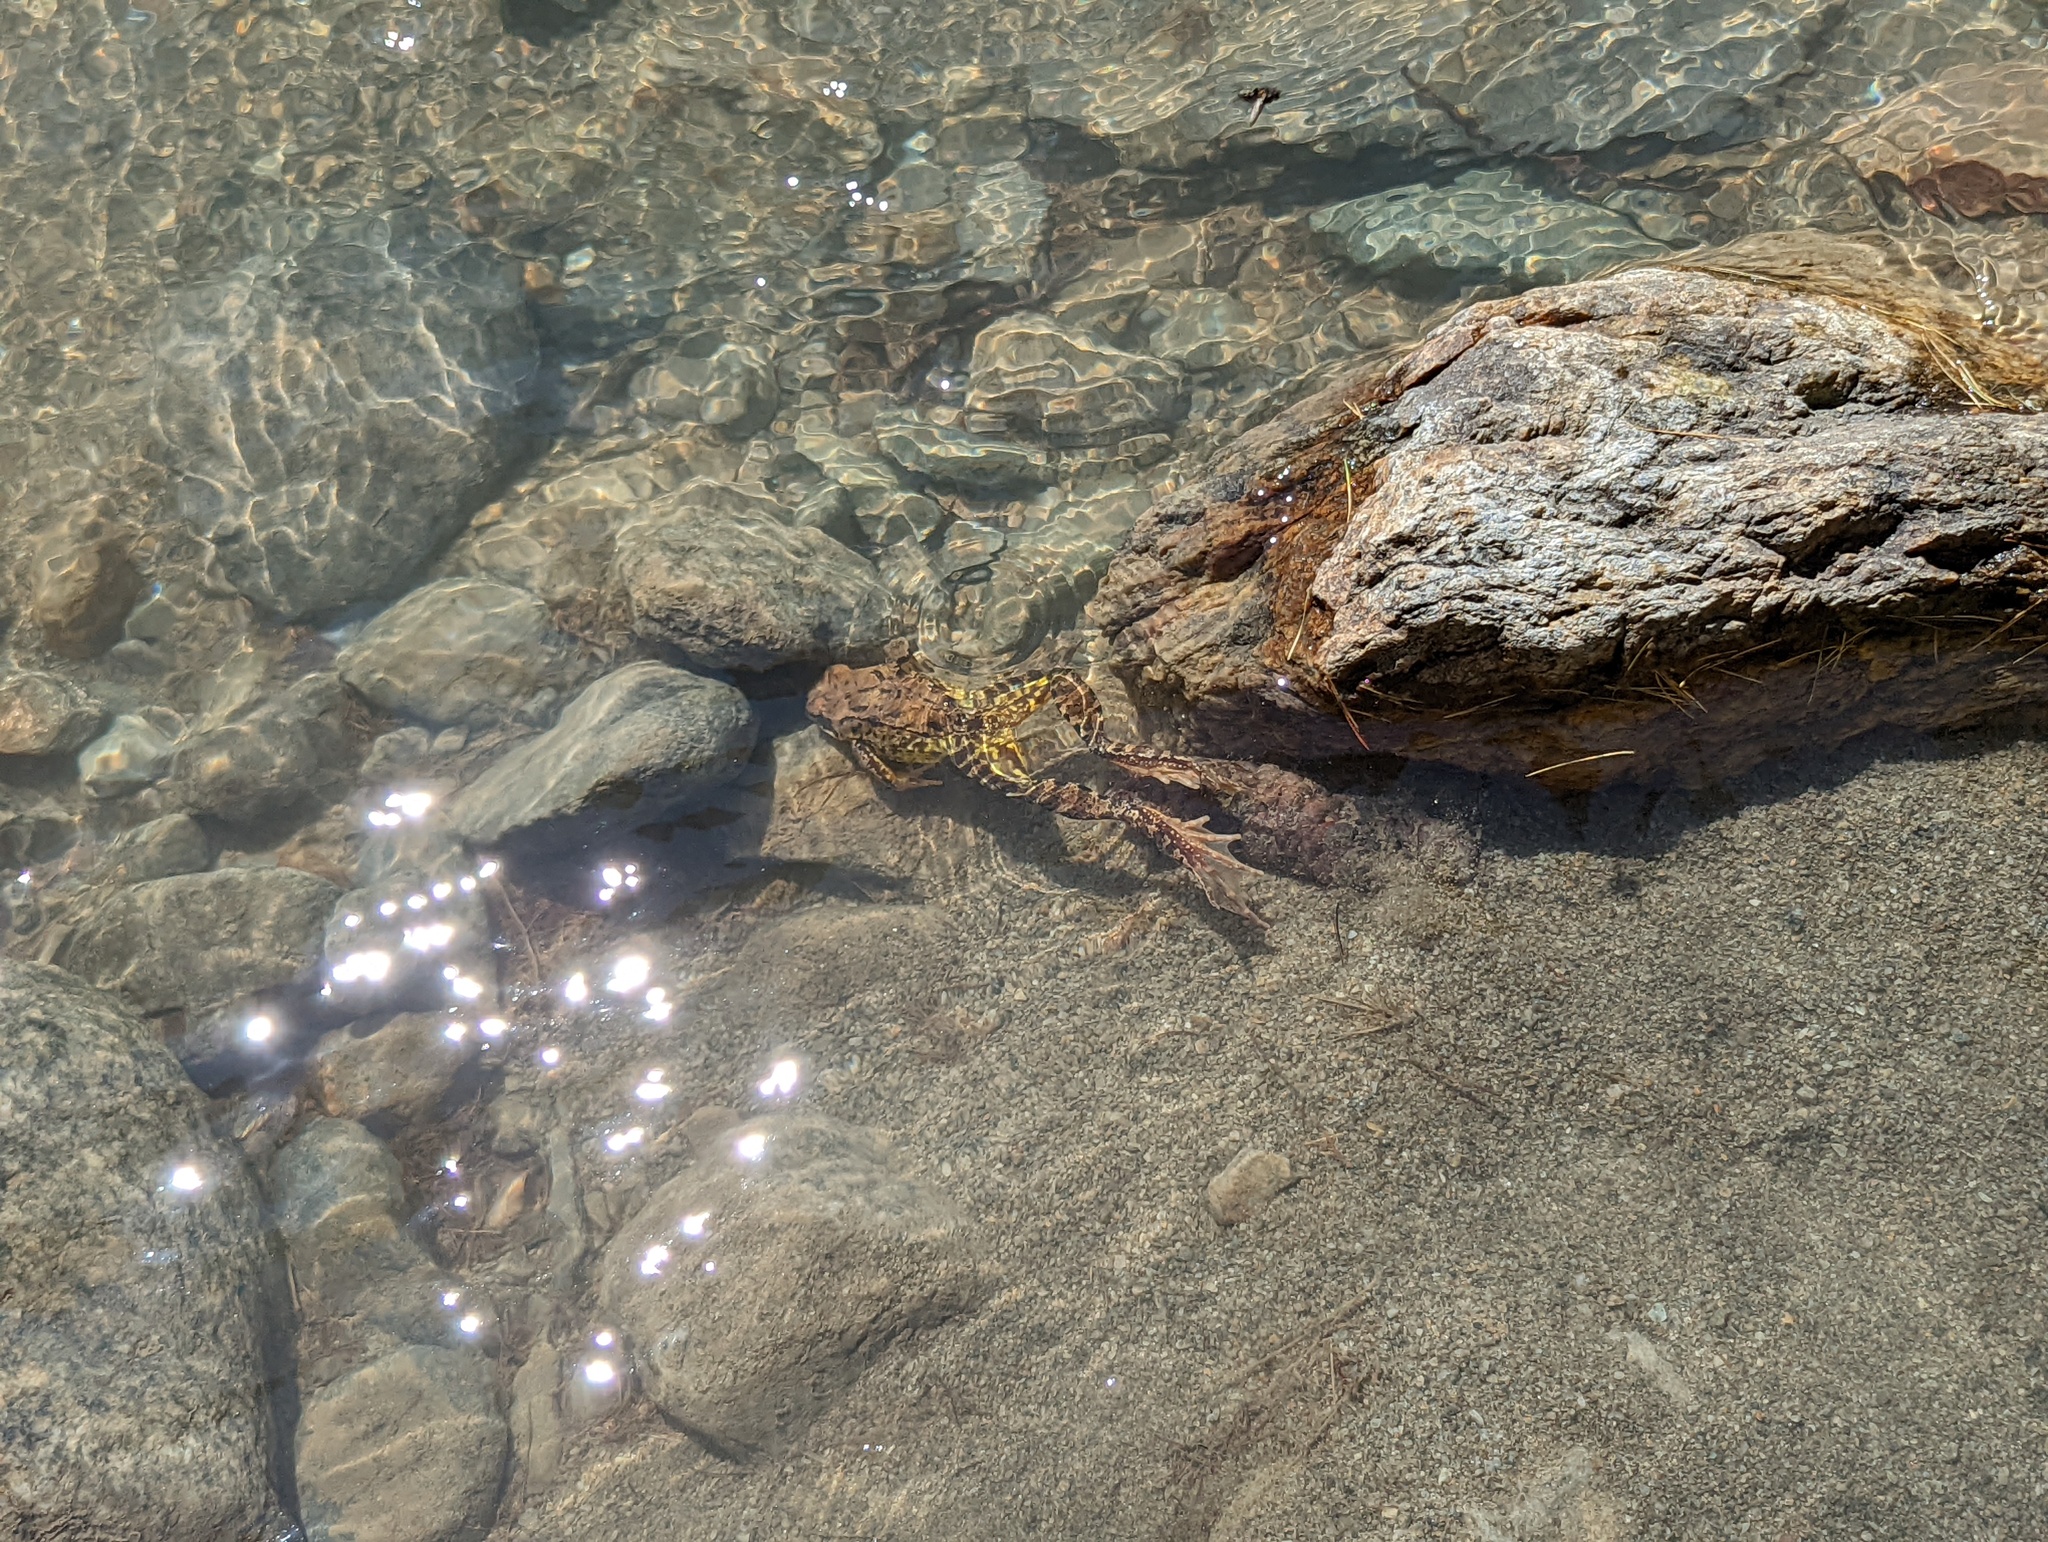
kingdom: Animalia
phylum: Chordata
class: Amphibia
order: Anura
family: Ranidae
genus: Rana
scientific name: Rana temporaria
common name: Common frog
